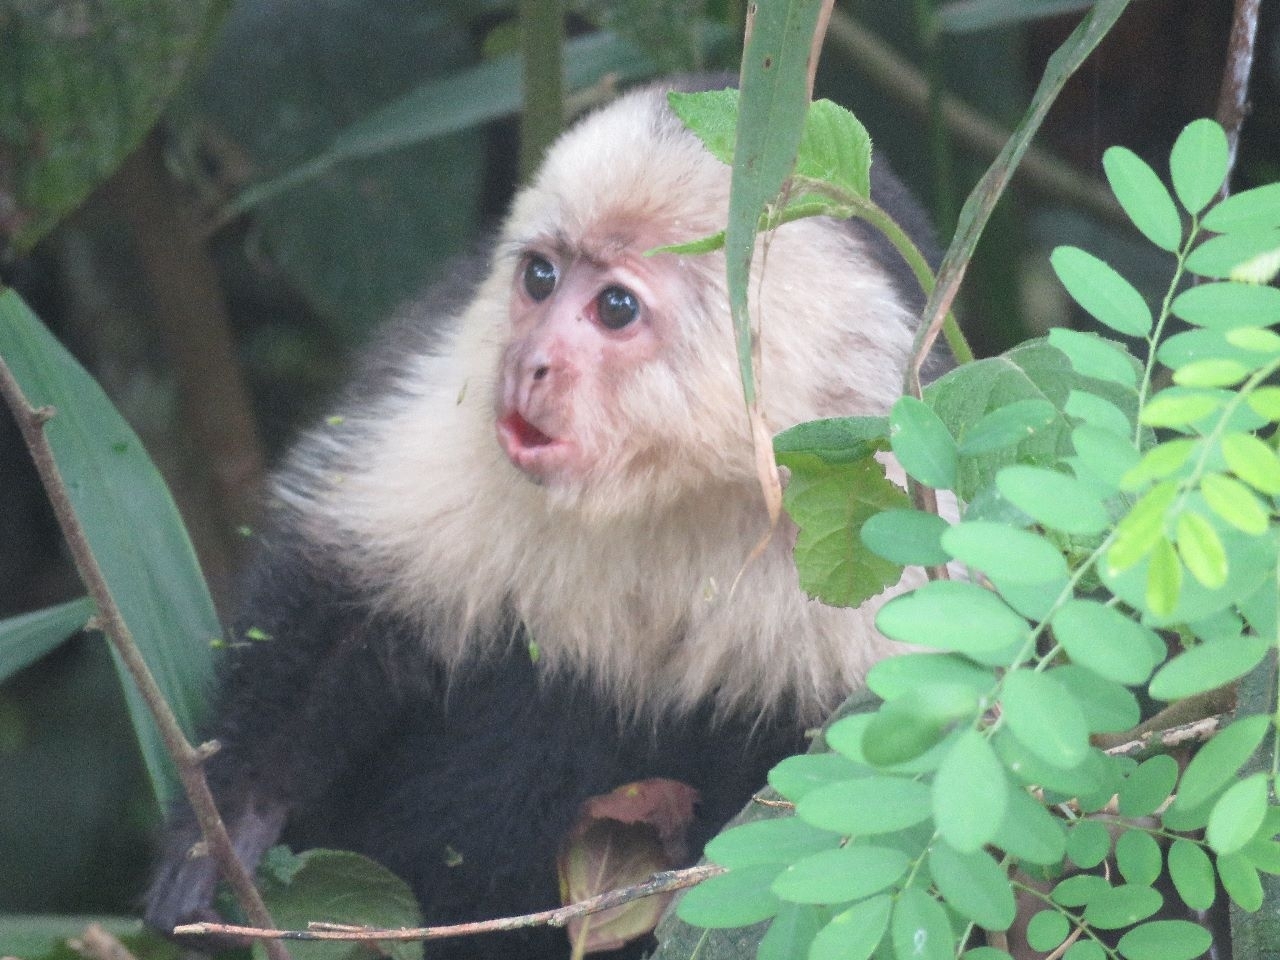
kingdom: Animalia
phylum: Chordata
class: Mammalia
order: Primates
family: Cebidae
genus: Cebus
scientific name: Cebus imitator
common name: Panamanian white-faced capuchin
